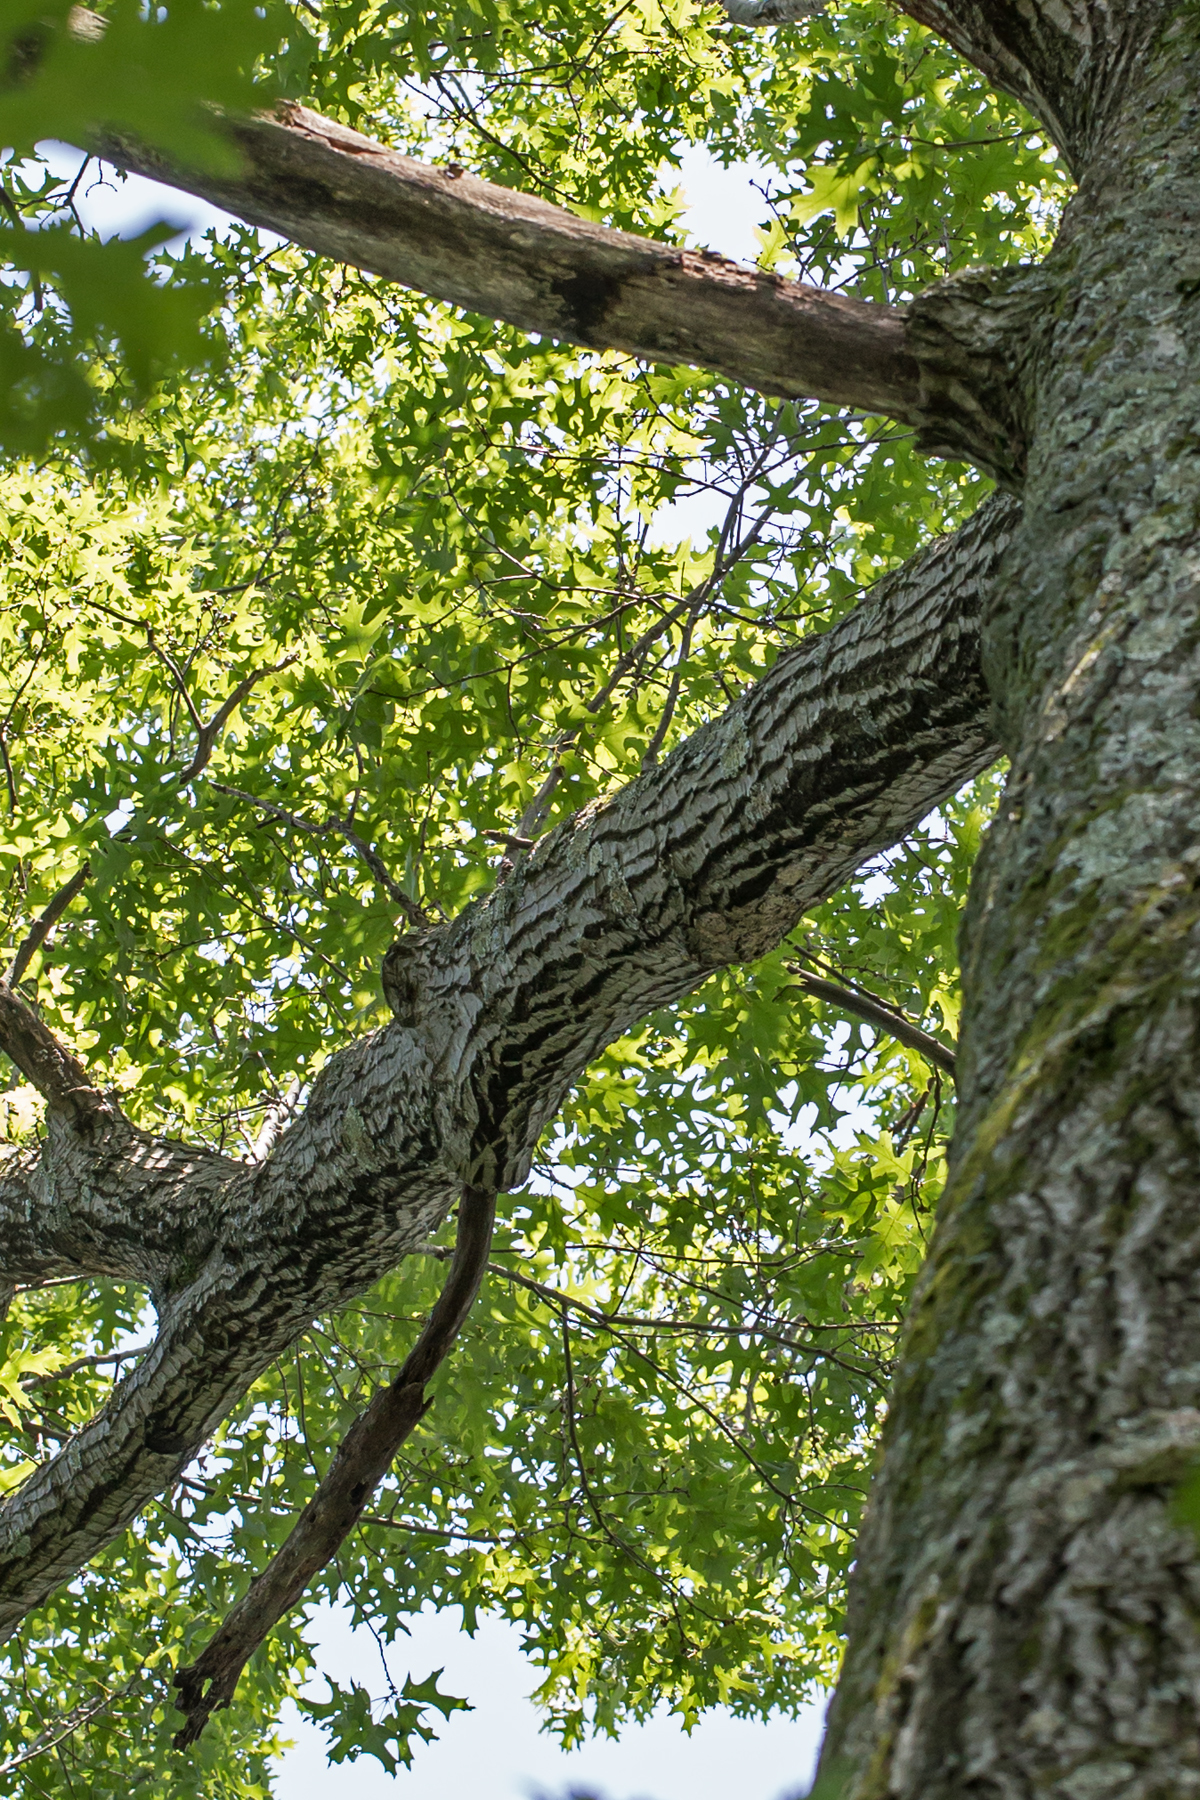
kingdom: Plantae
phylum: Tracheophyta
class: Magnoliopsida
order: Fagales
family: Fagaceae
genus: Quercus
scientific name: Quercus velutina
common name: Black oak
